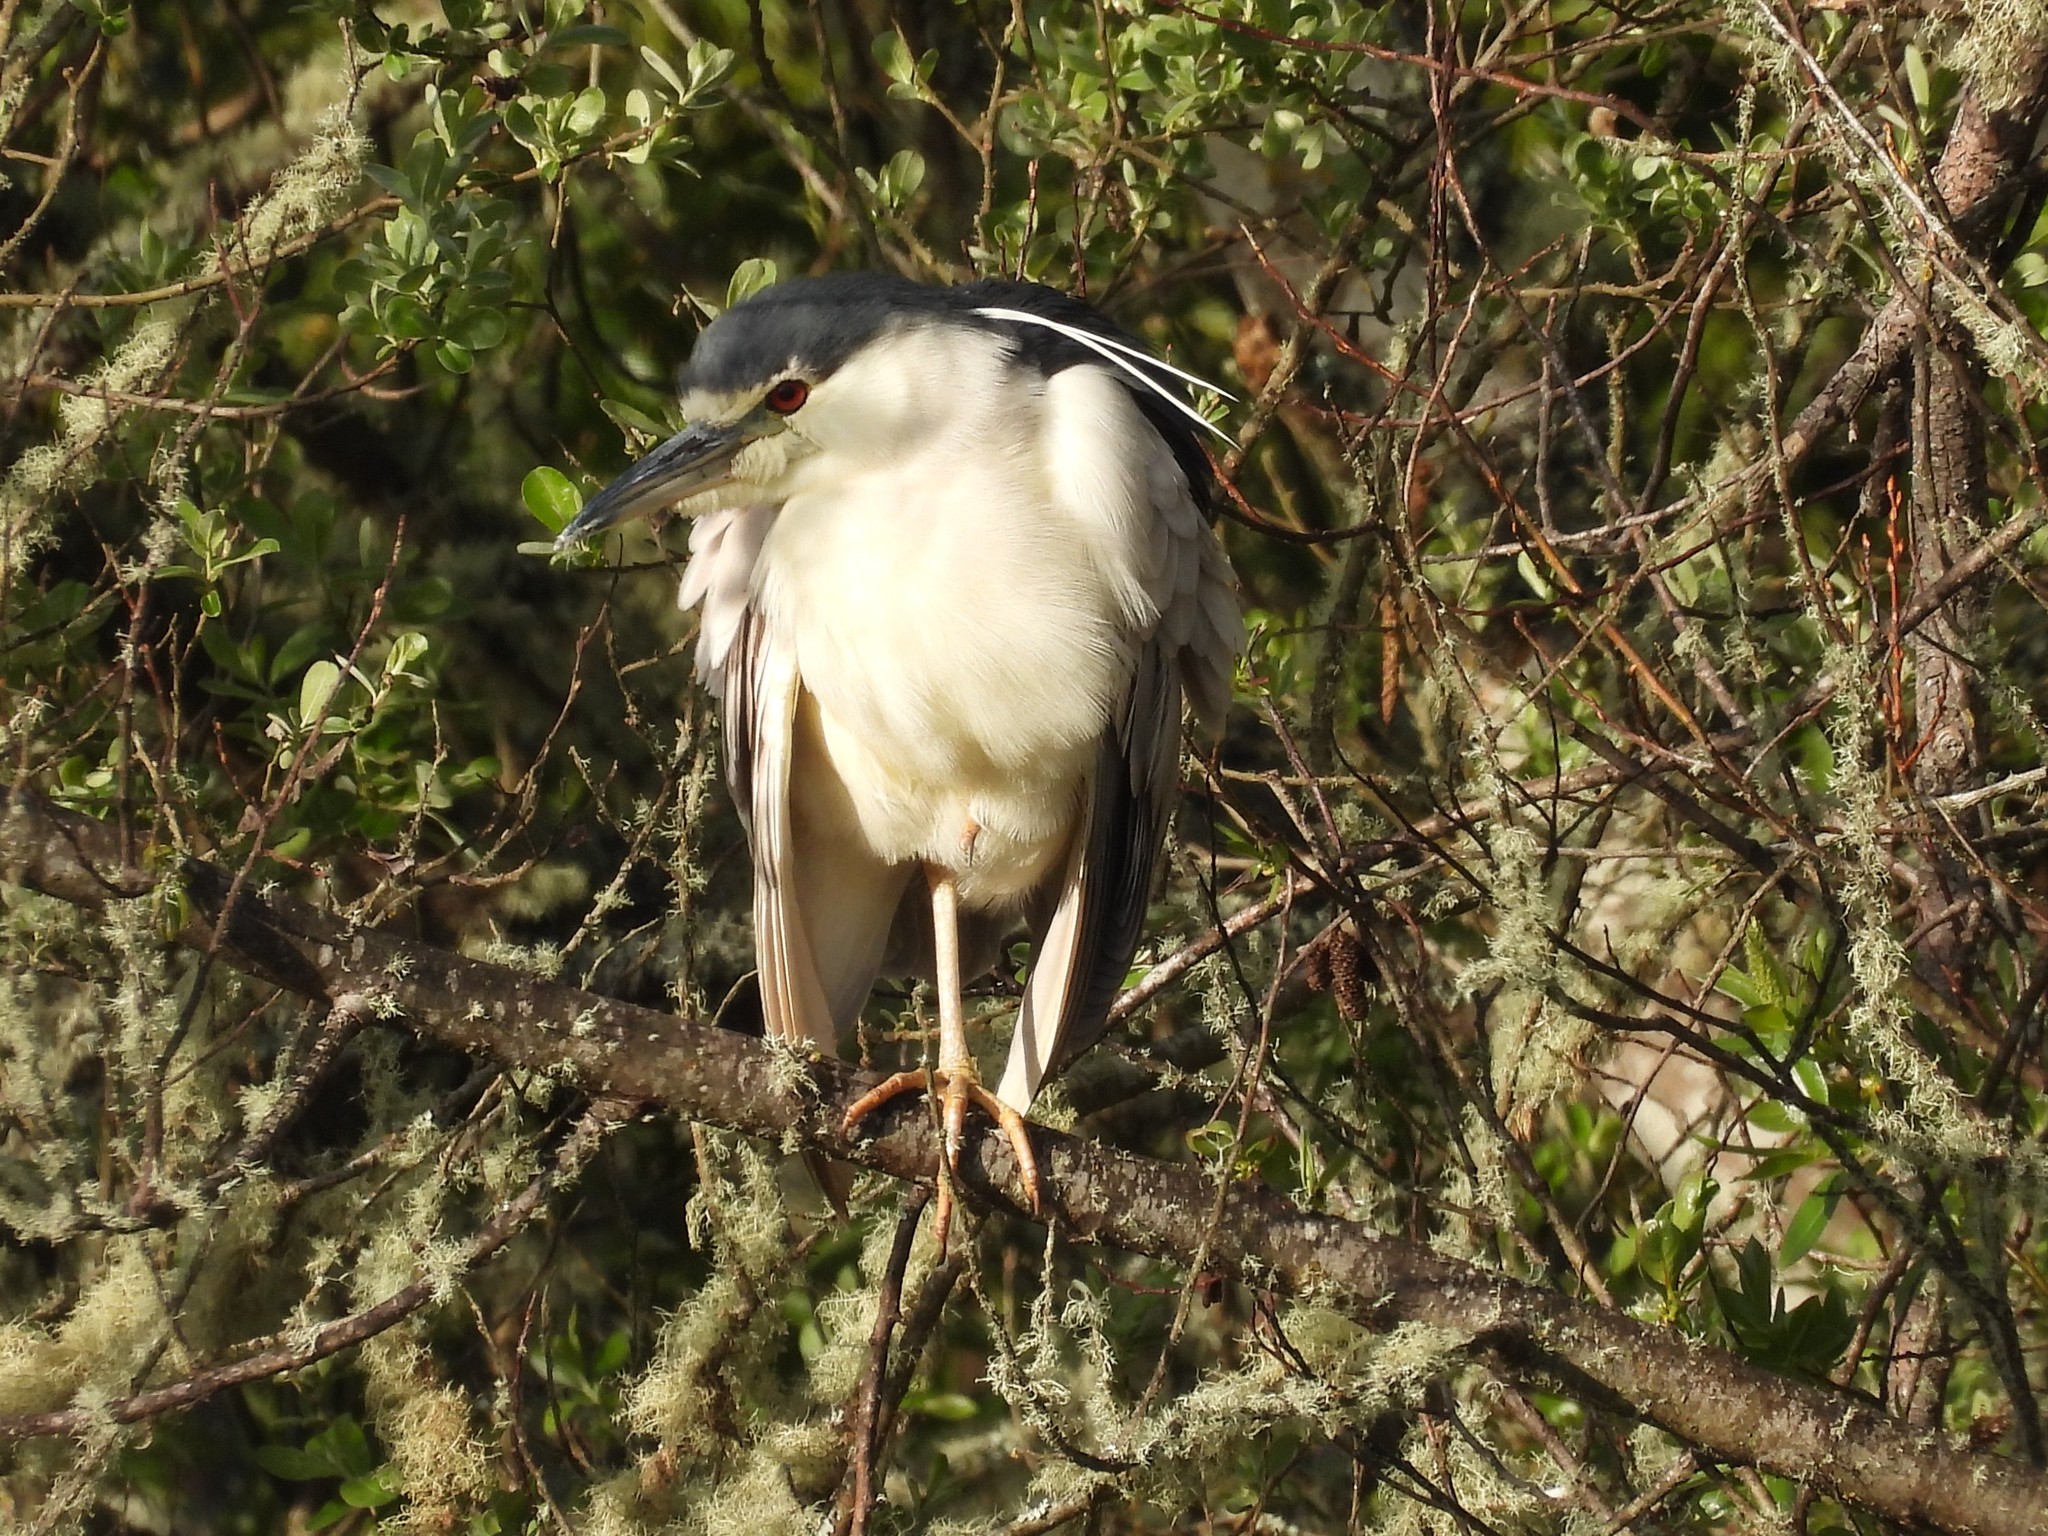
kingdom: Animalia
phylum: Chordata
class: Aves
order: Pelecaniformes
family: Ardeidae
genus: Nycticorax
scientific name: Nycticorax nycticorax
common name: Black-crowned night heron
